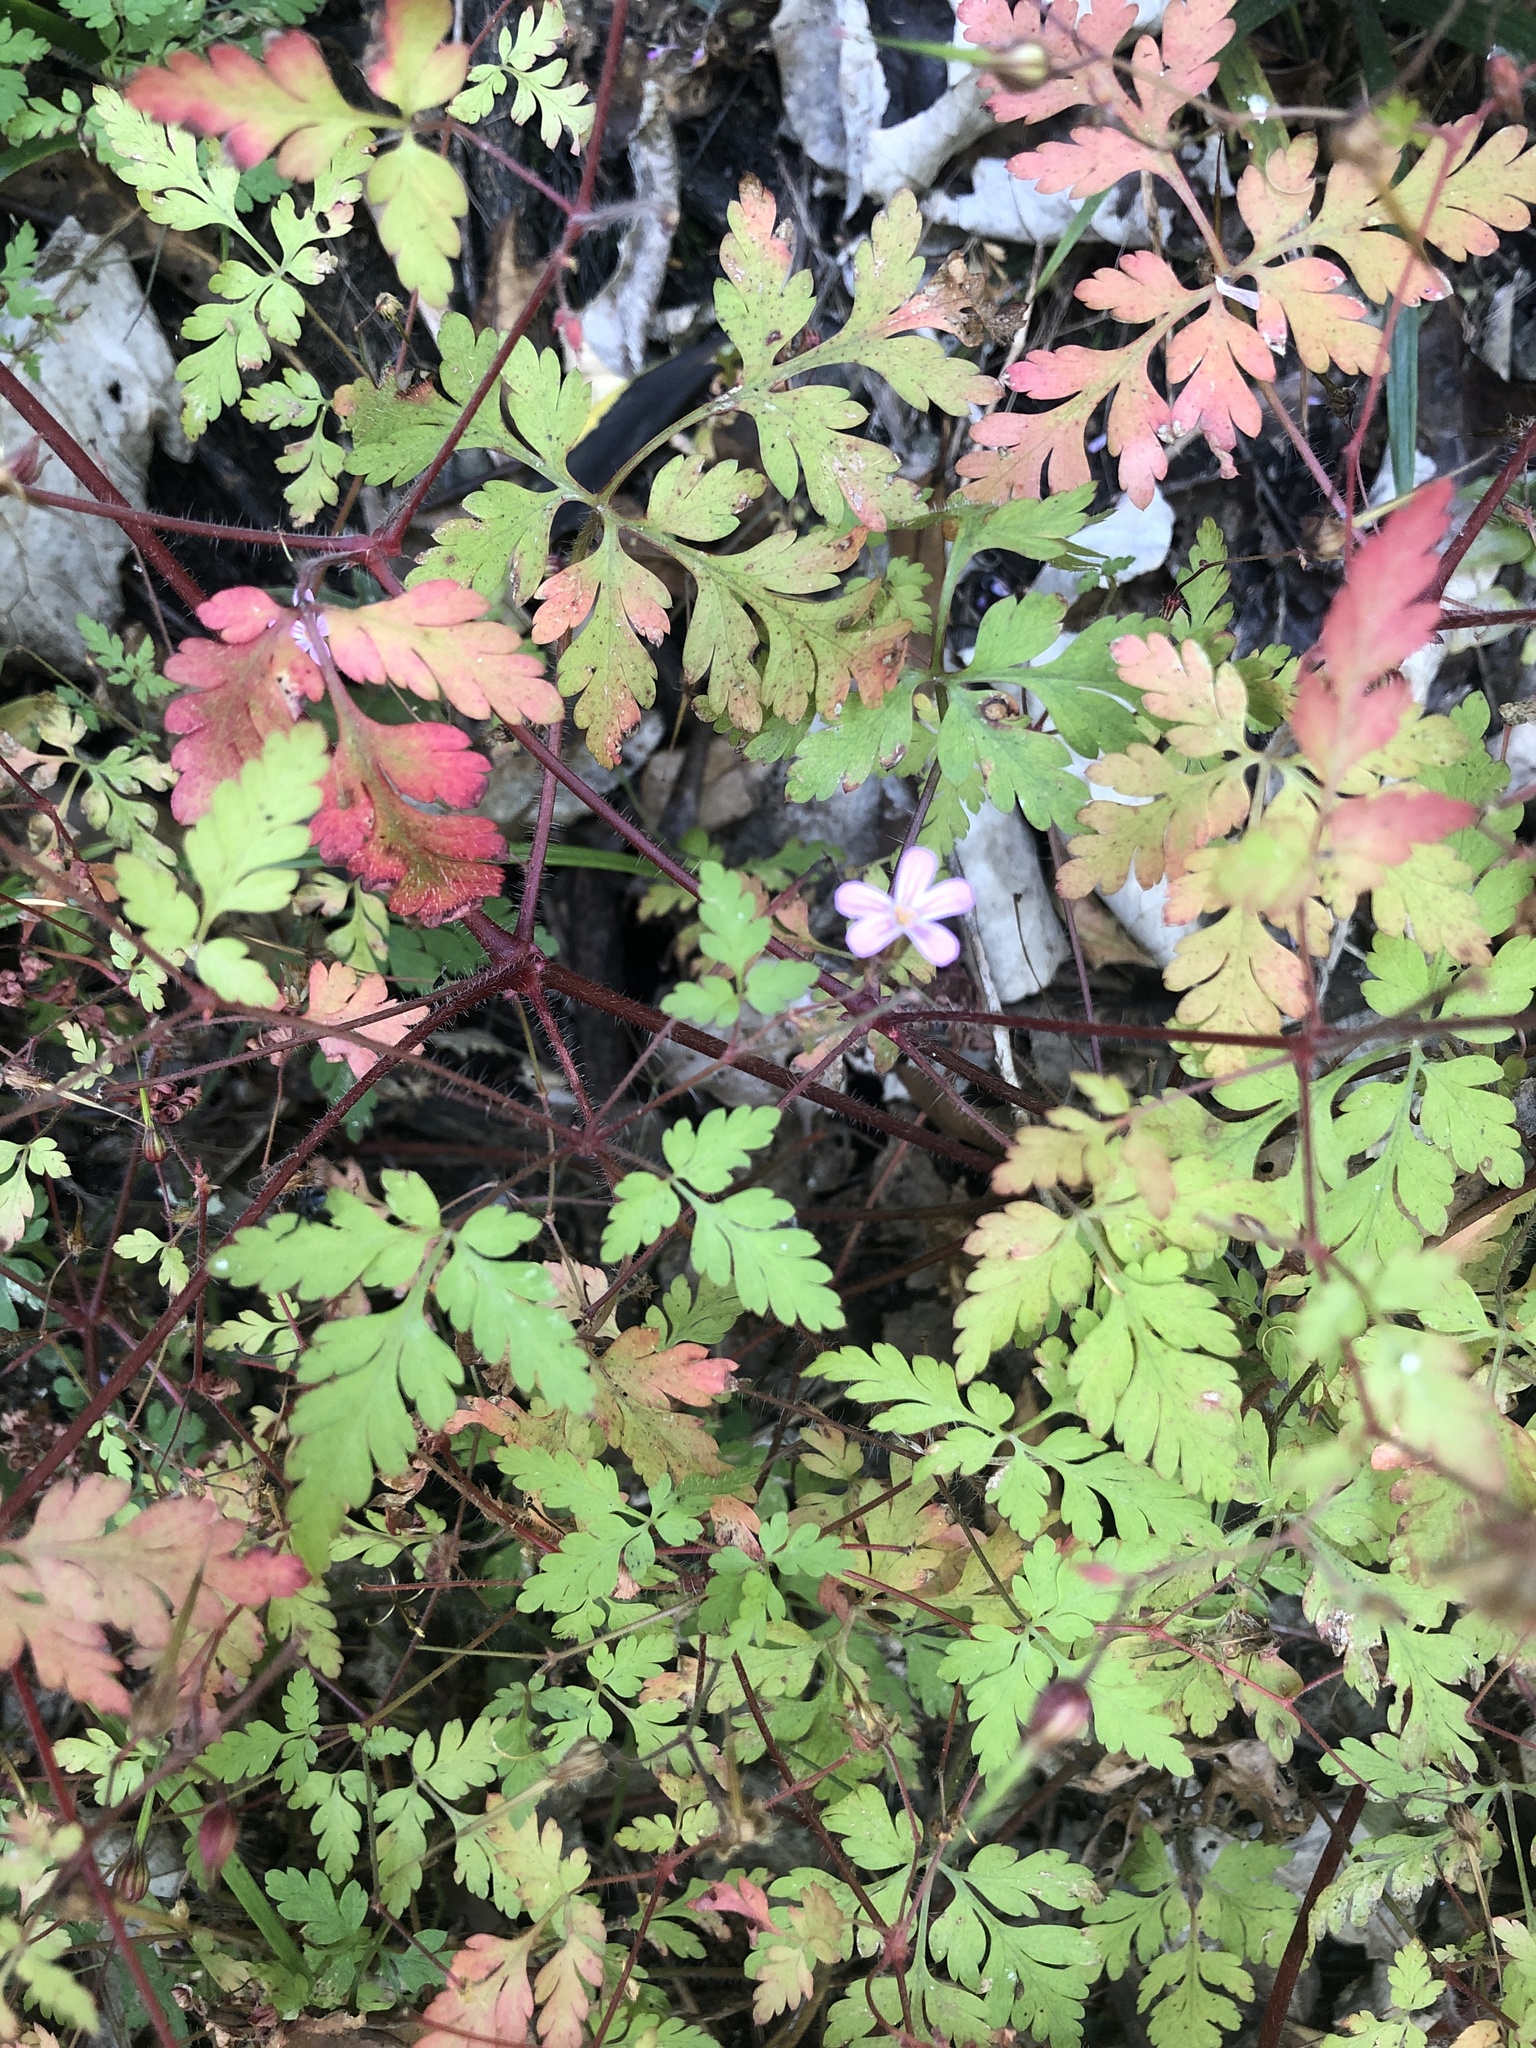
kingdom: Plantae
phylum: Tracheophyta
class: Magnoliopsida
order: Geraniales
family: Geraniaceae
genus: Geranium
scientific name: Geranium robertianum
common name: Herb-robert
